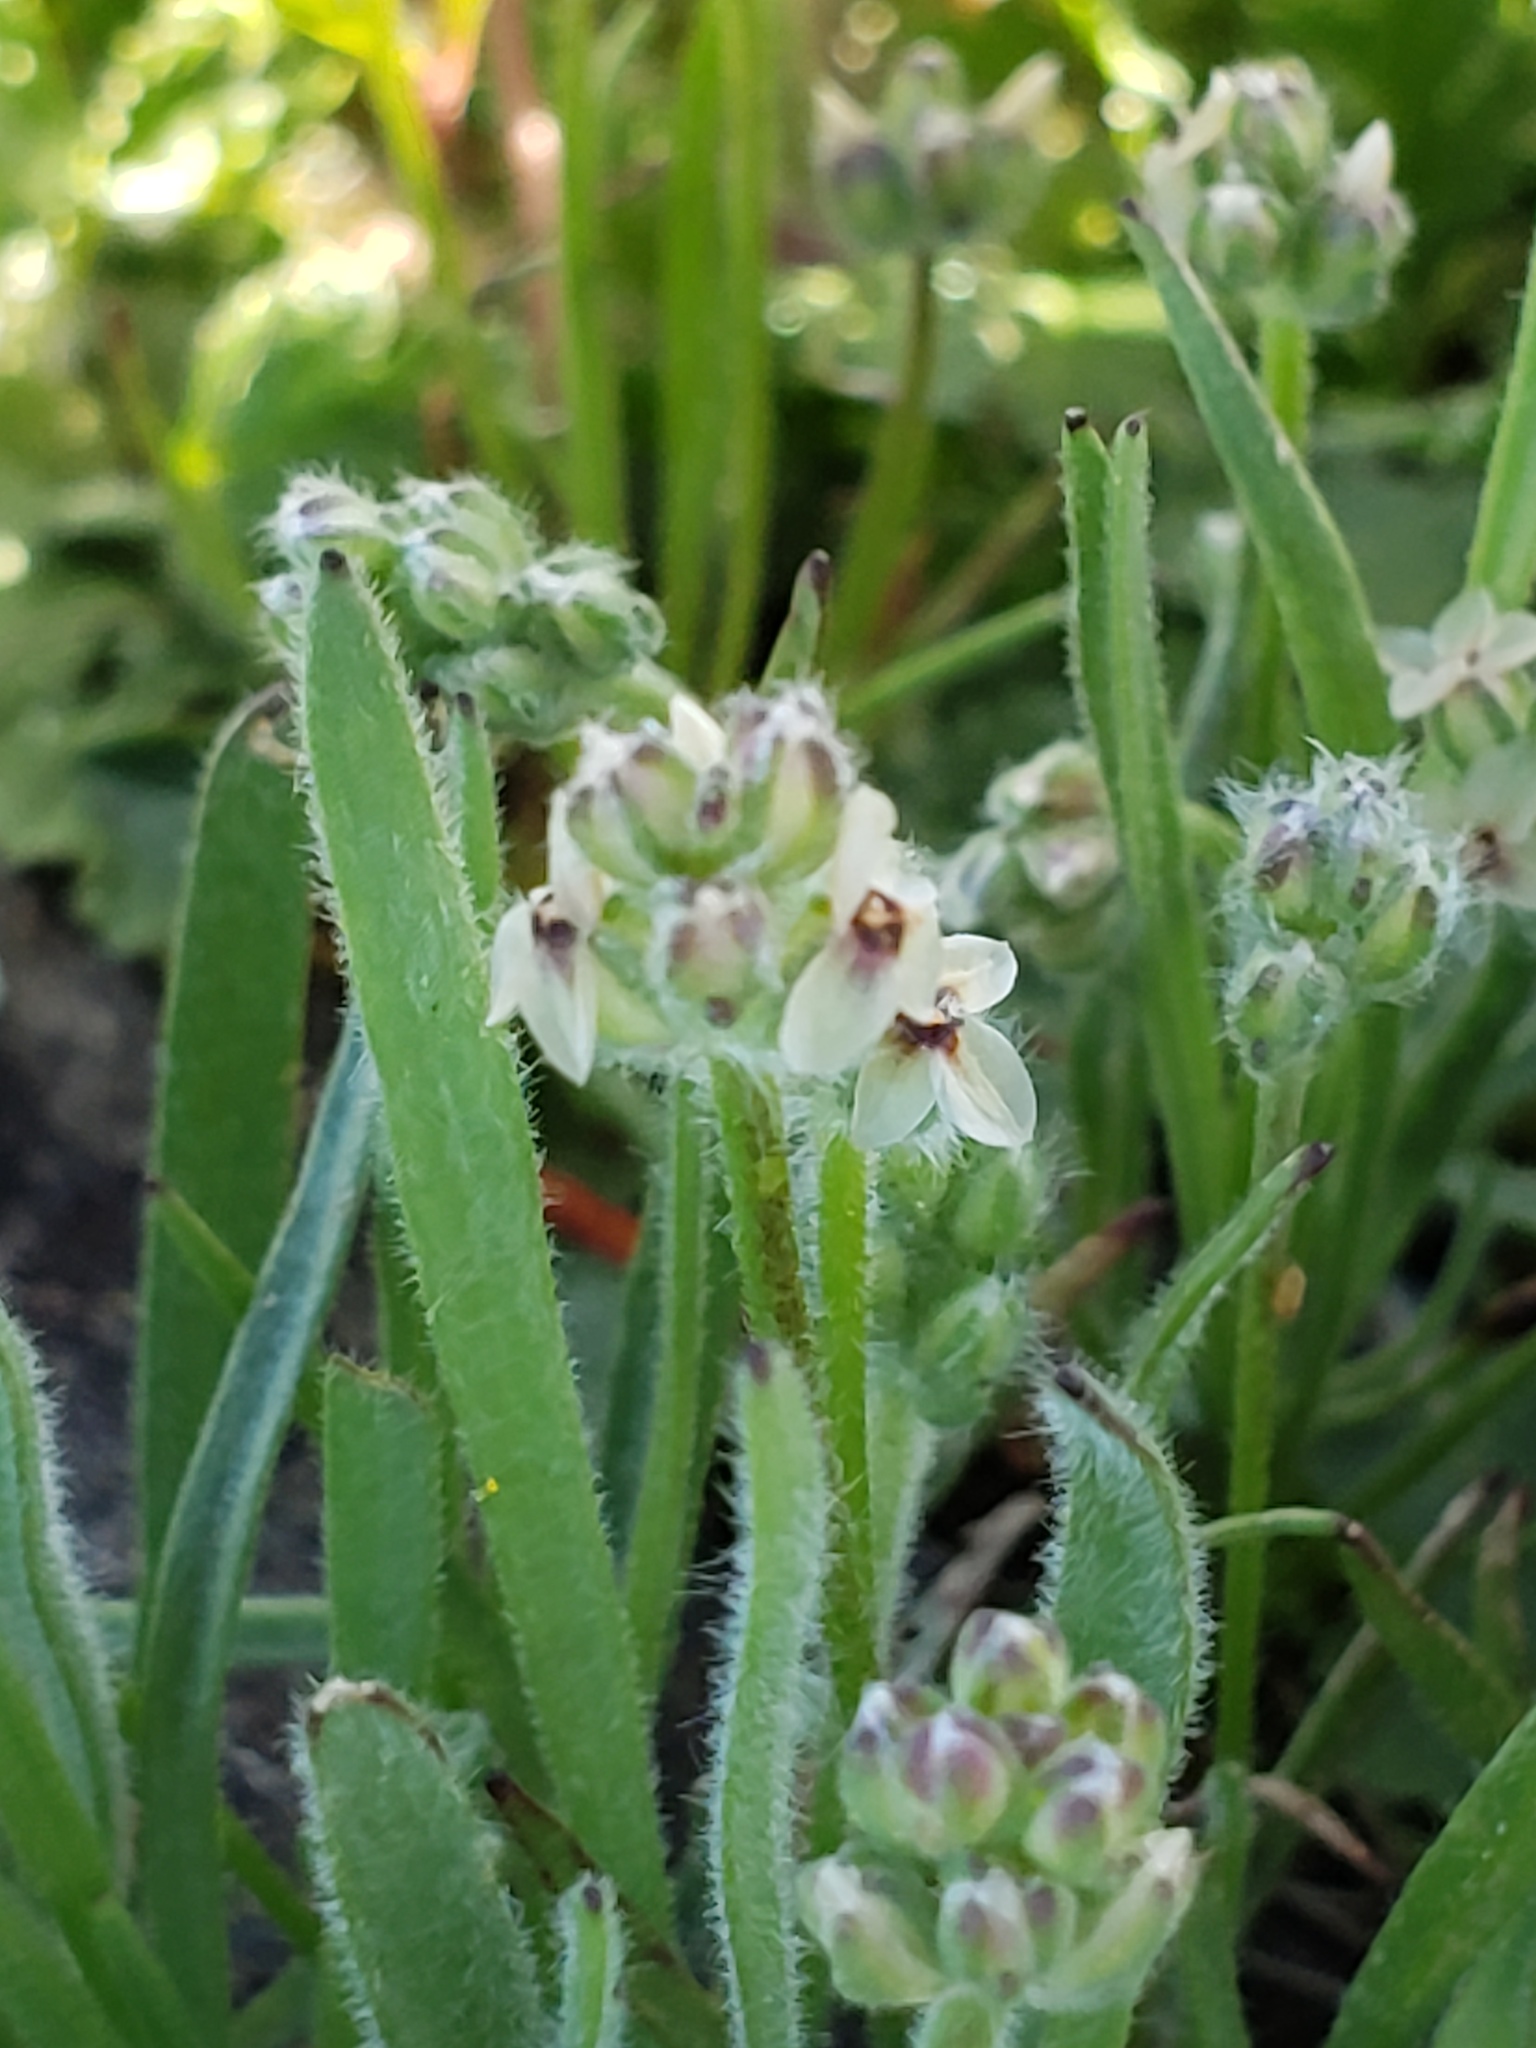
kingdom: Plantae
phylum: Tracheophyta
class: Magnoliopsida
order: Lamiales
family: Plantaginaceae
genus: Plantago
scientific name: Plantago erecta
